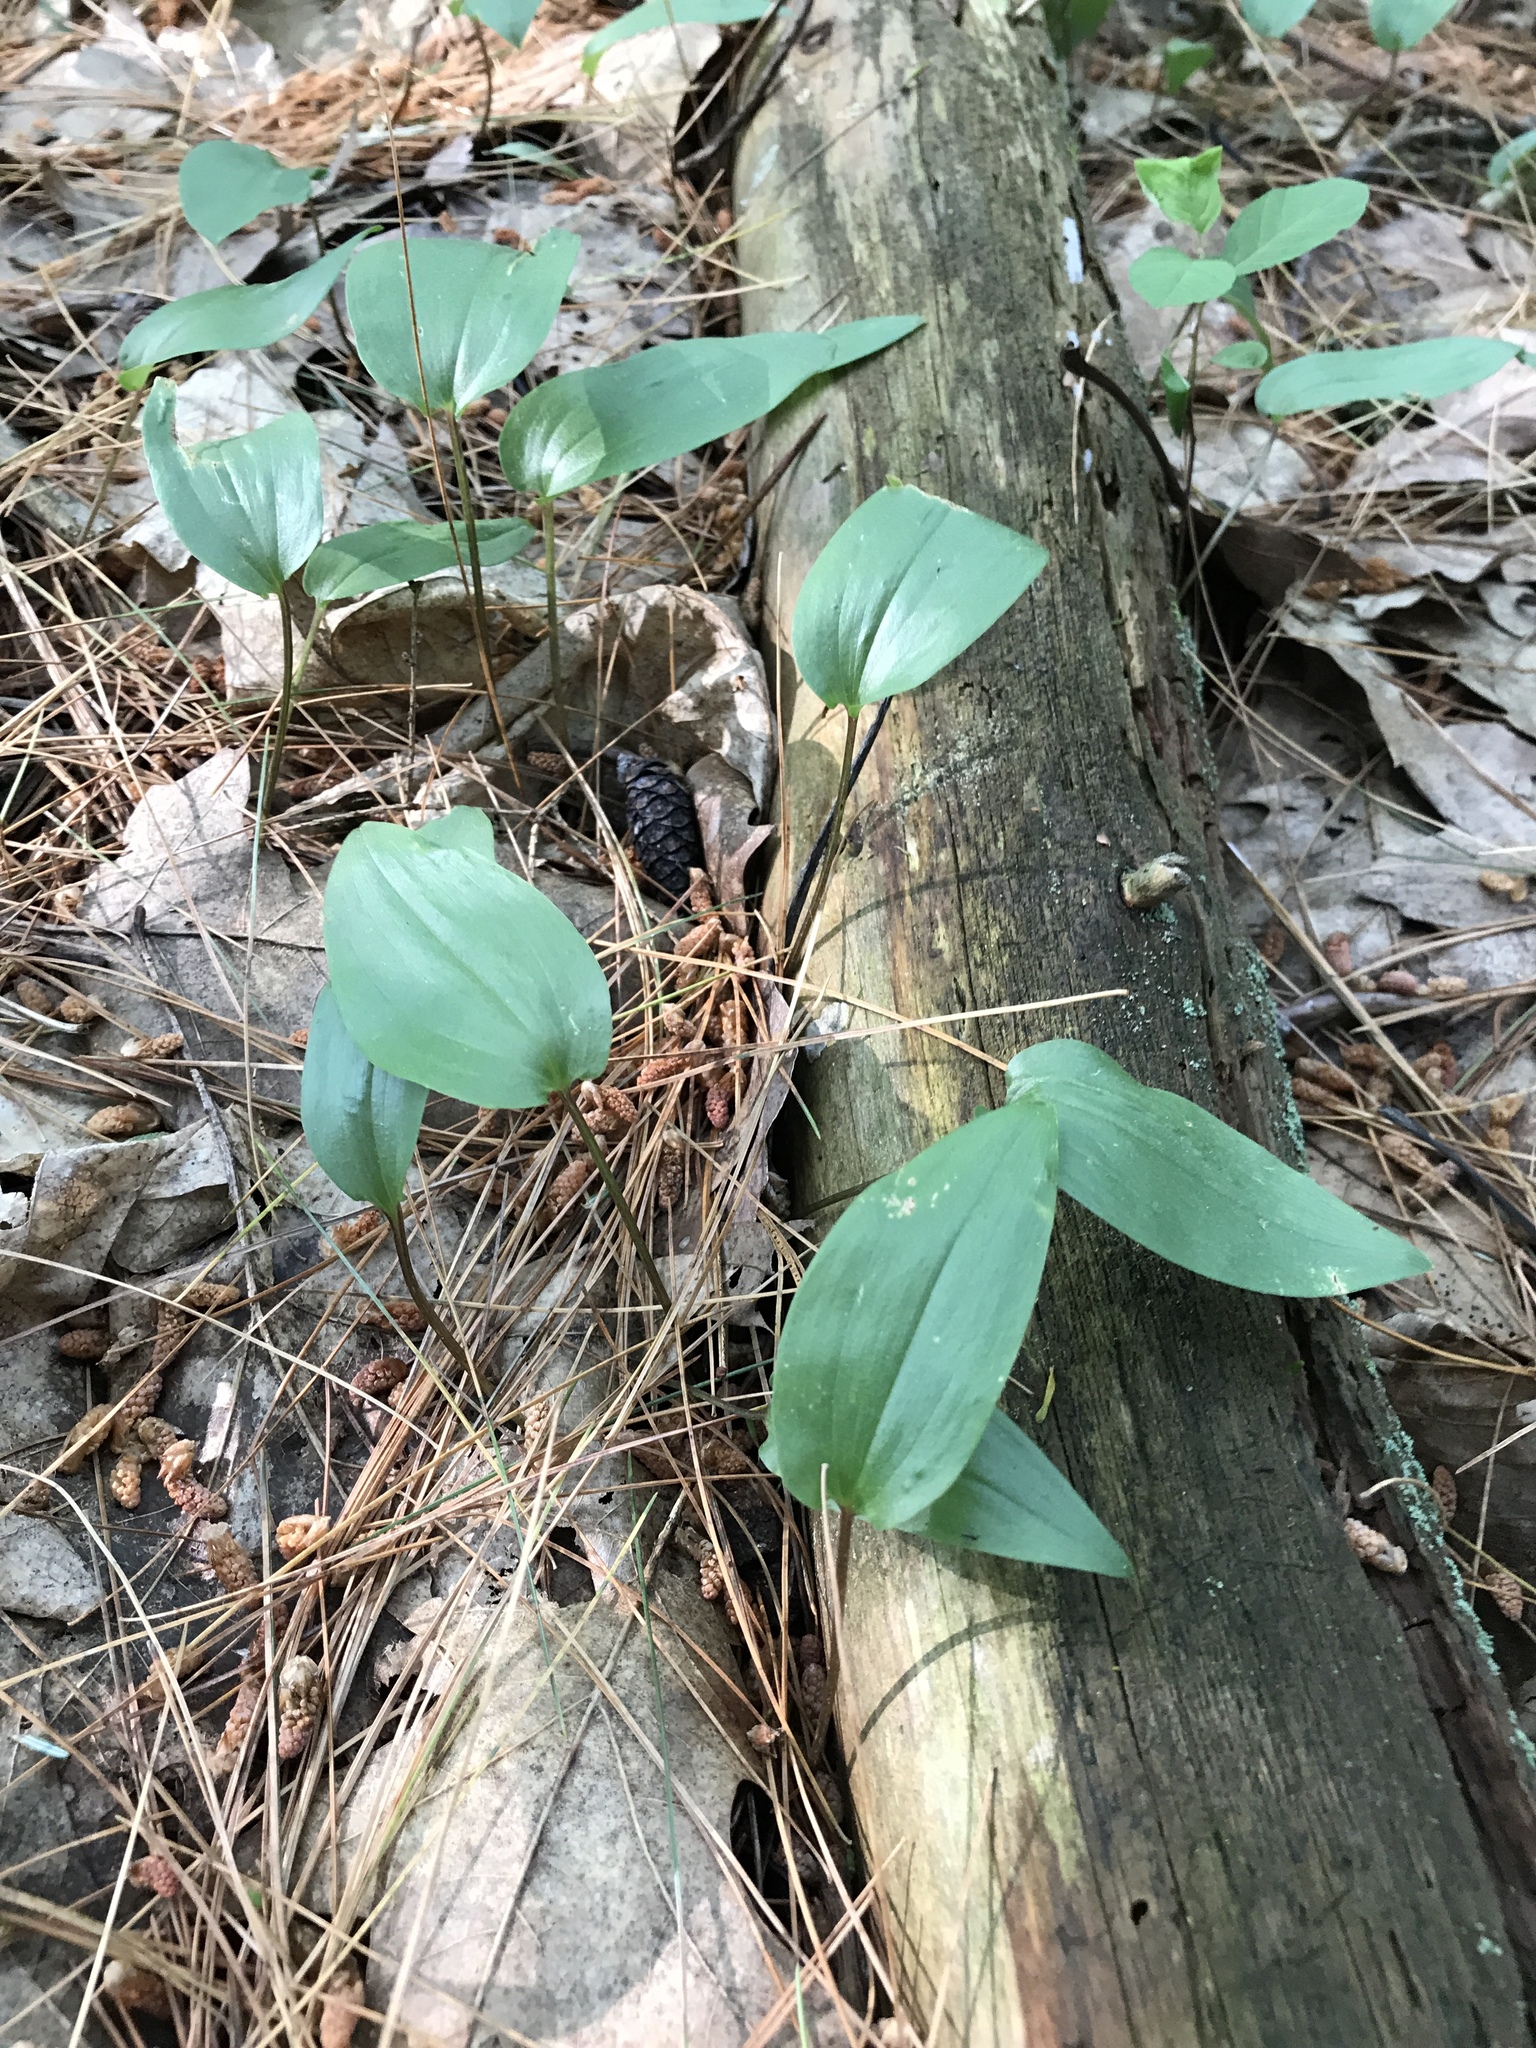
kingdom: Plantae
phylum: Tracheophyta
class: Liliopsida
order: Asparagales
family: Asparagaceae
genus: Maianthemum
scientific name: Maianthemum canadense
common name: False lily-of-the-valley
